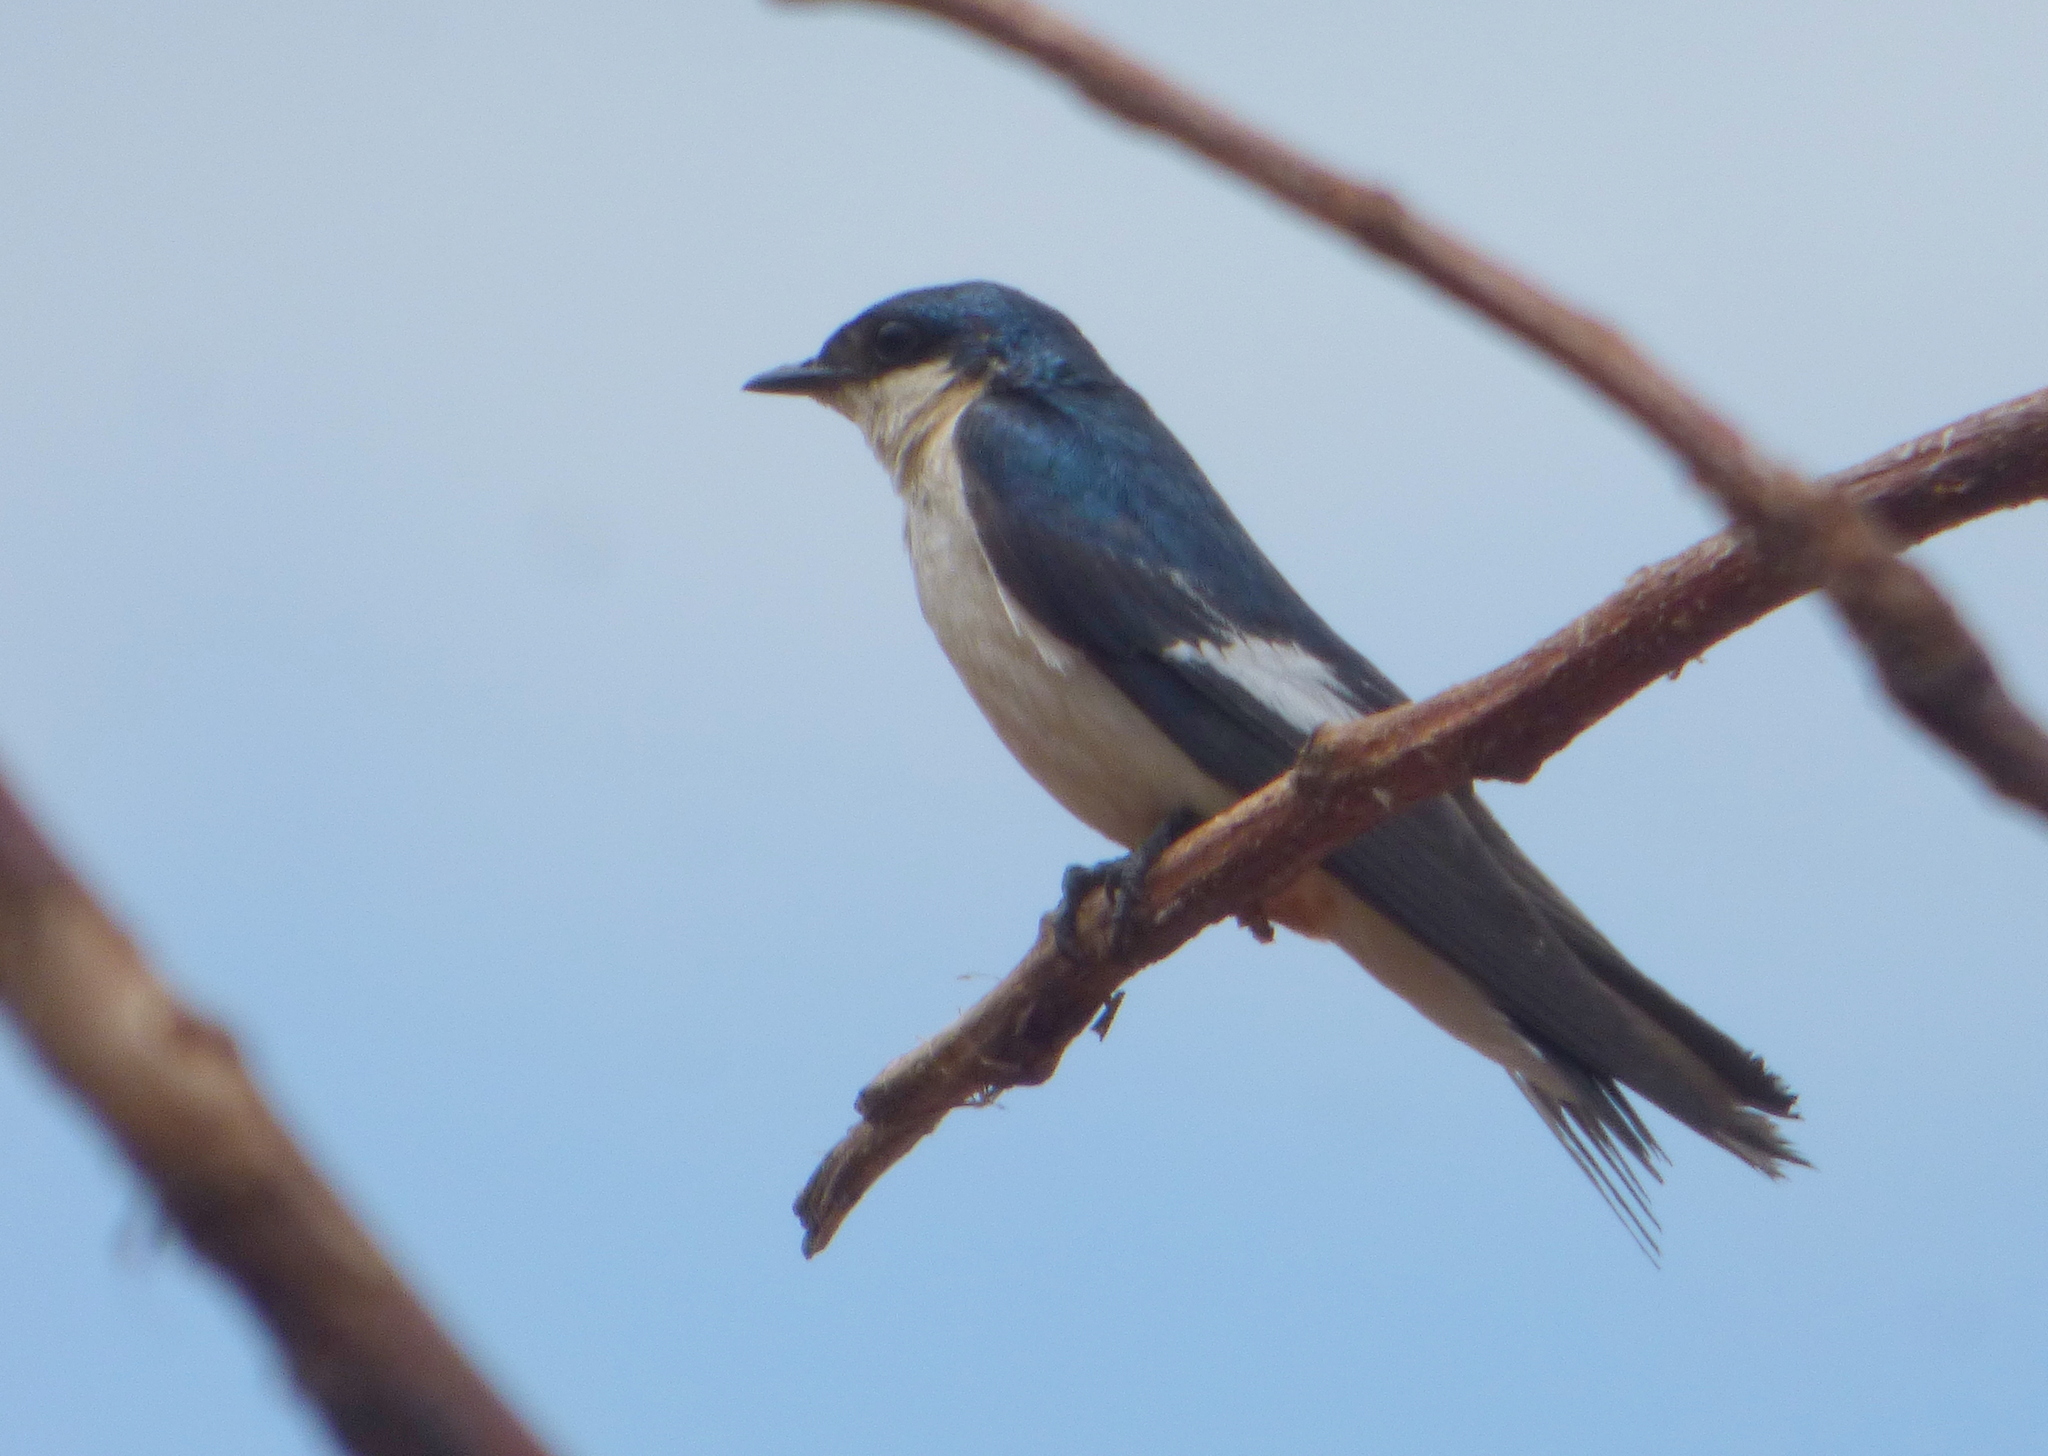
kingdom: Animalia
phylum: Chordata
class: Aves
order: Passeriformes
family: Hirundinidae
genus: Tachycineta
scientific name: Tachycineta albiventer
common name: White-winged swallow
